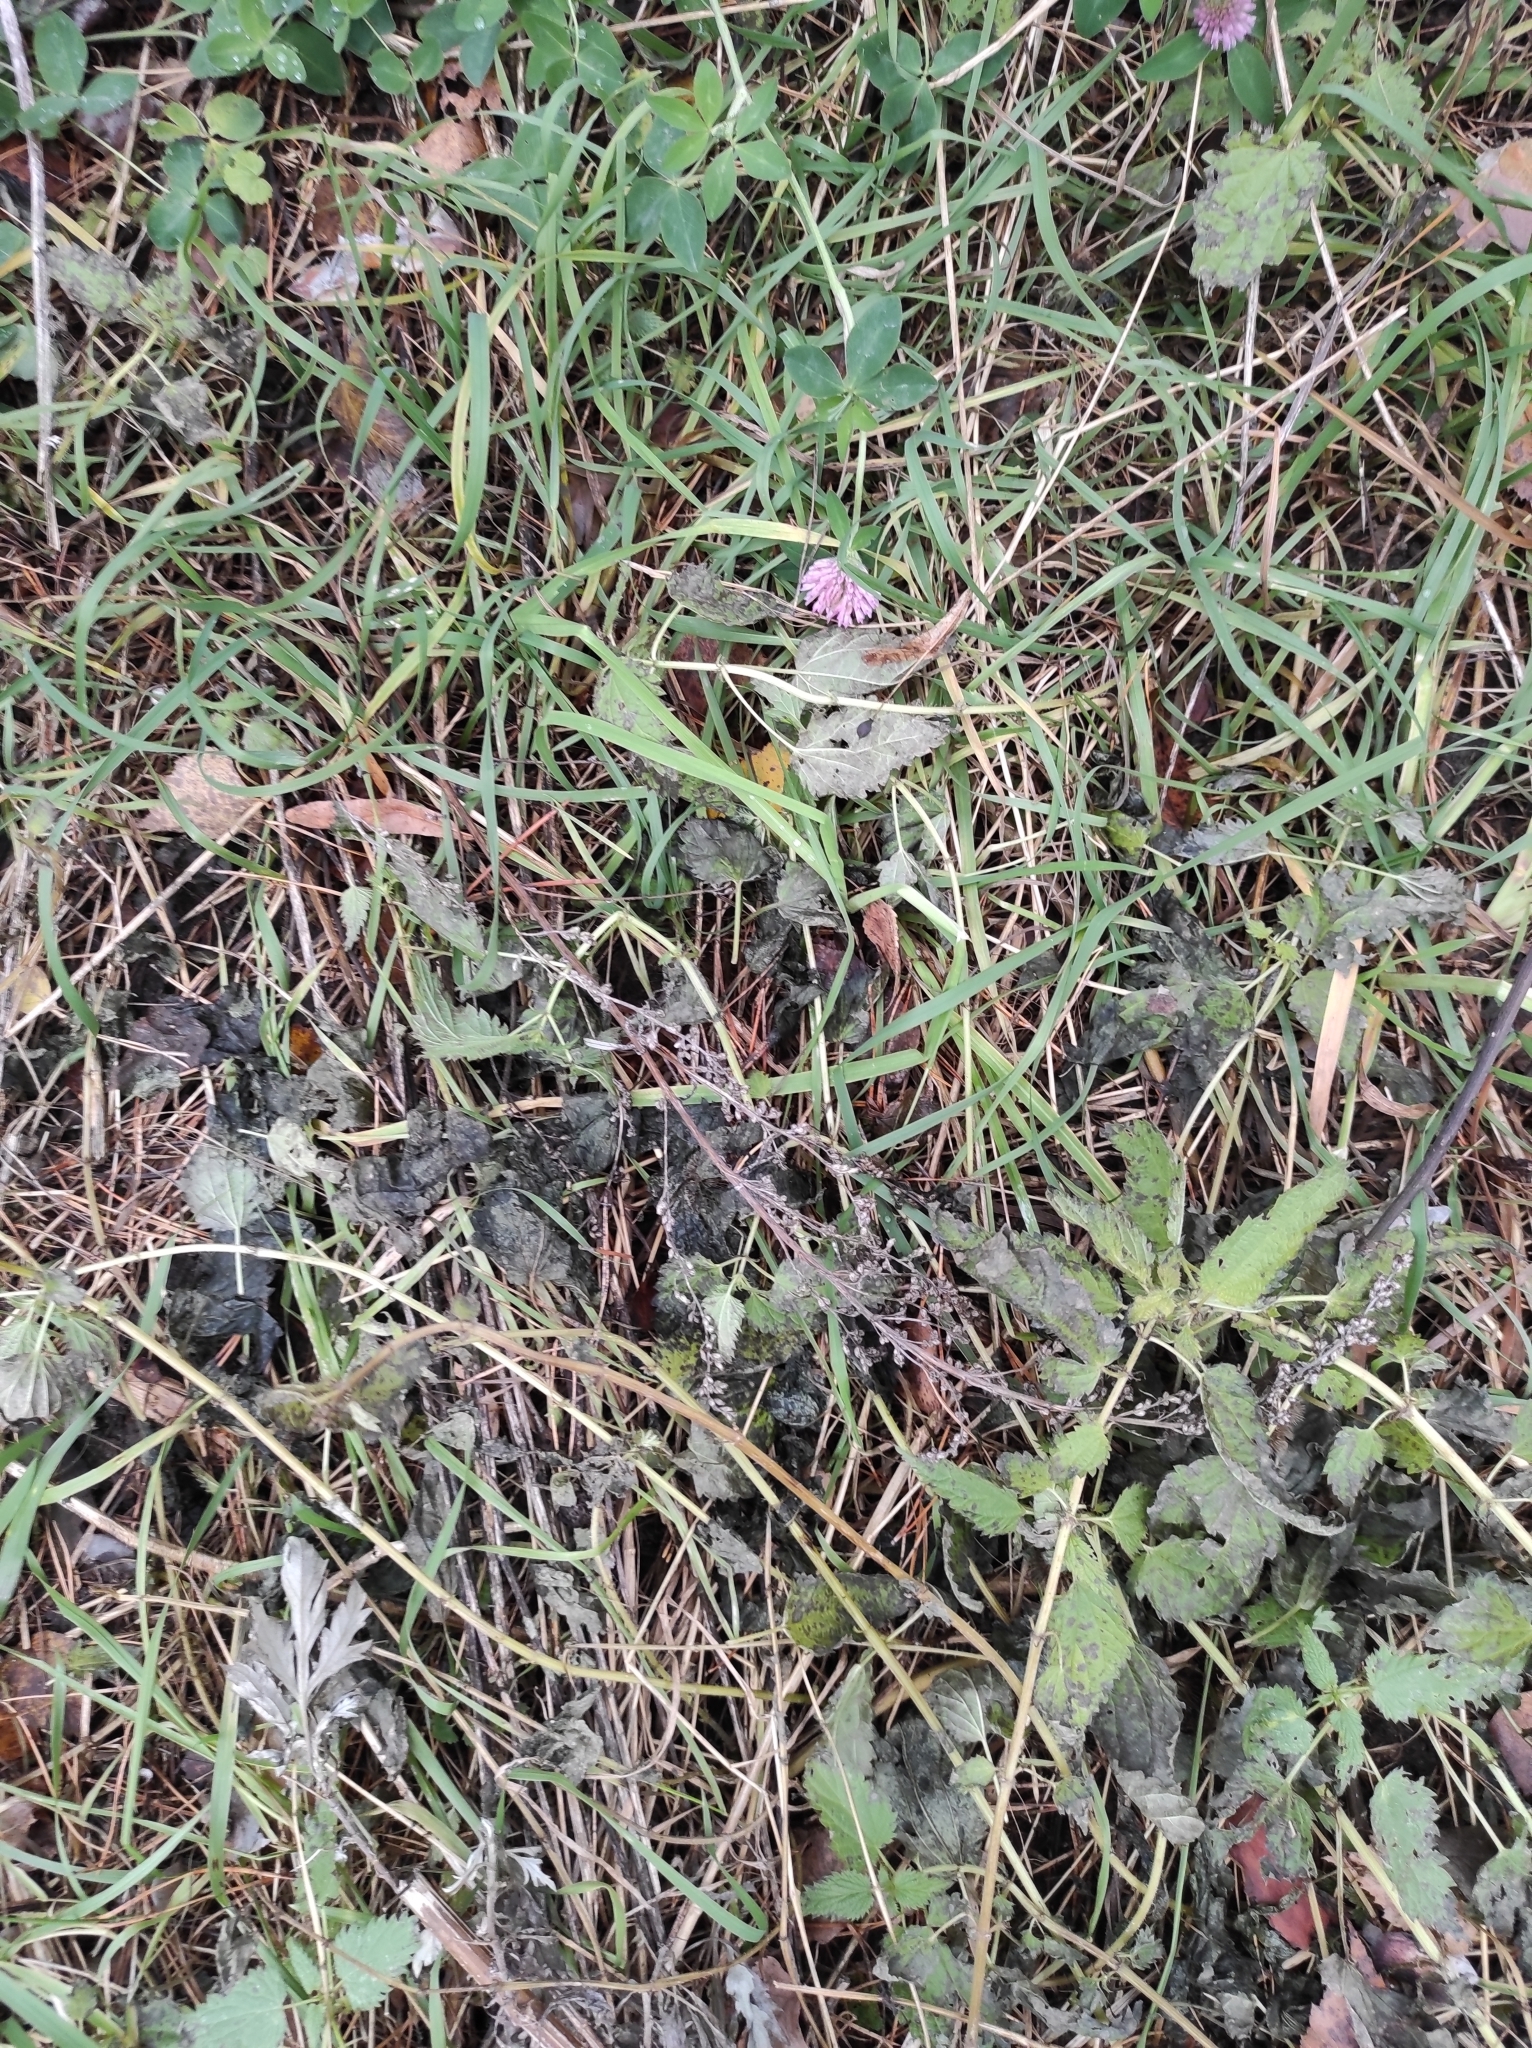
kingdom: Plantae
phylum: Tracheophyta
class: Magnoliopsida
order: Fabales
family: Fabaceae
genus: Trifolium
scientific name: Trifolium pratense
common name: Red clover
